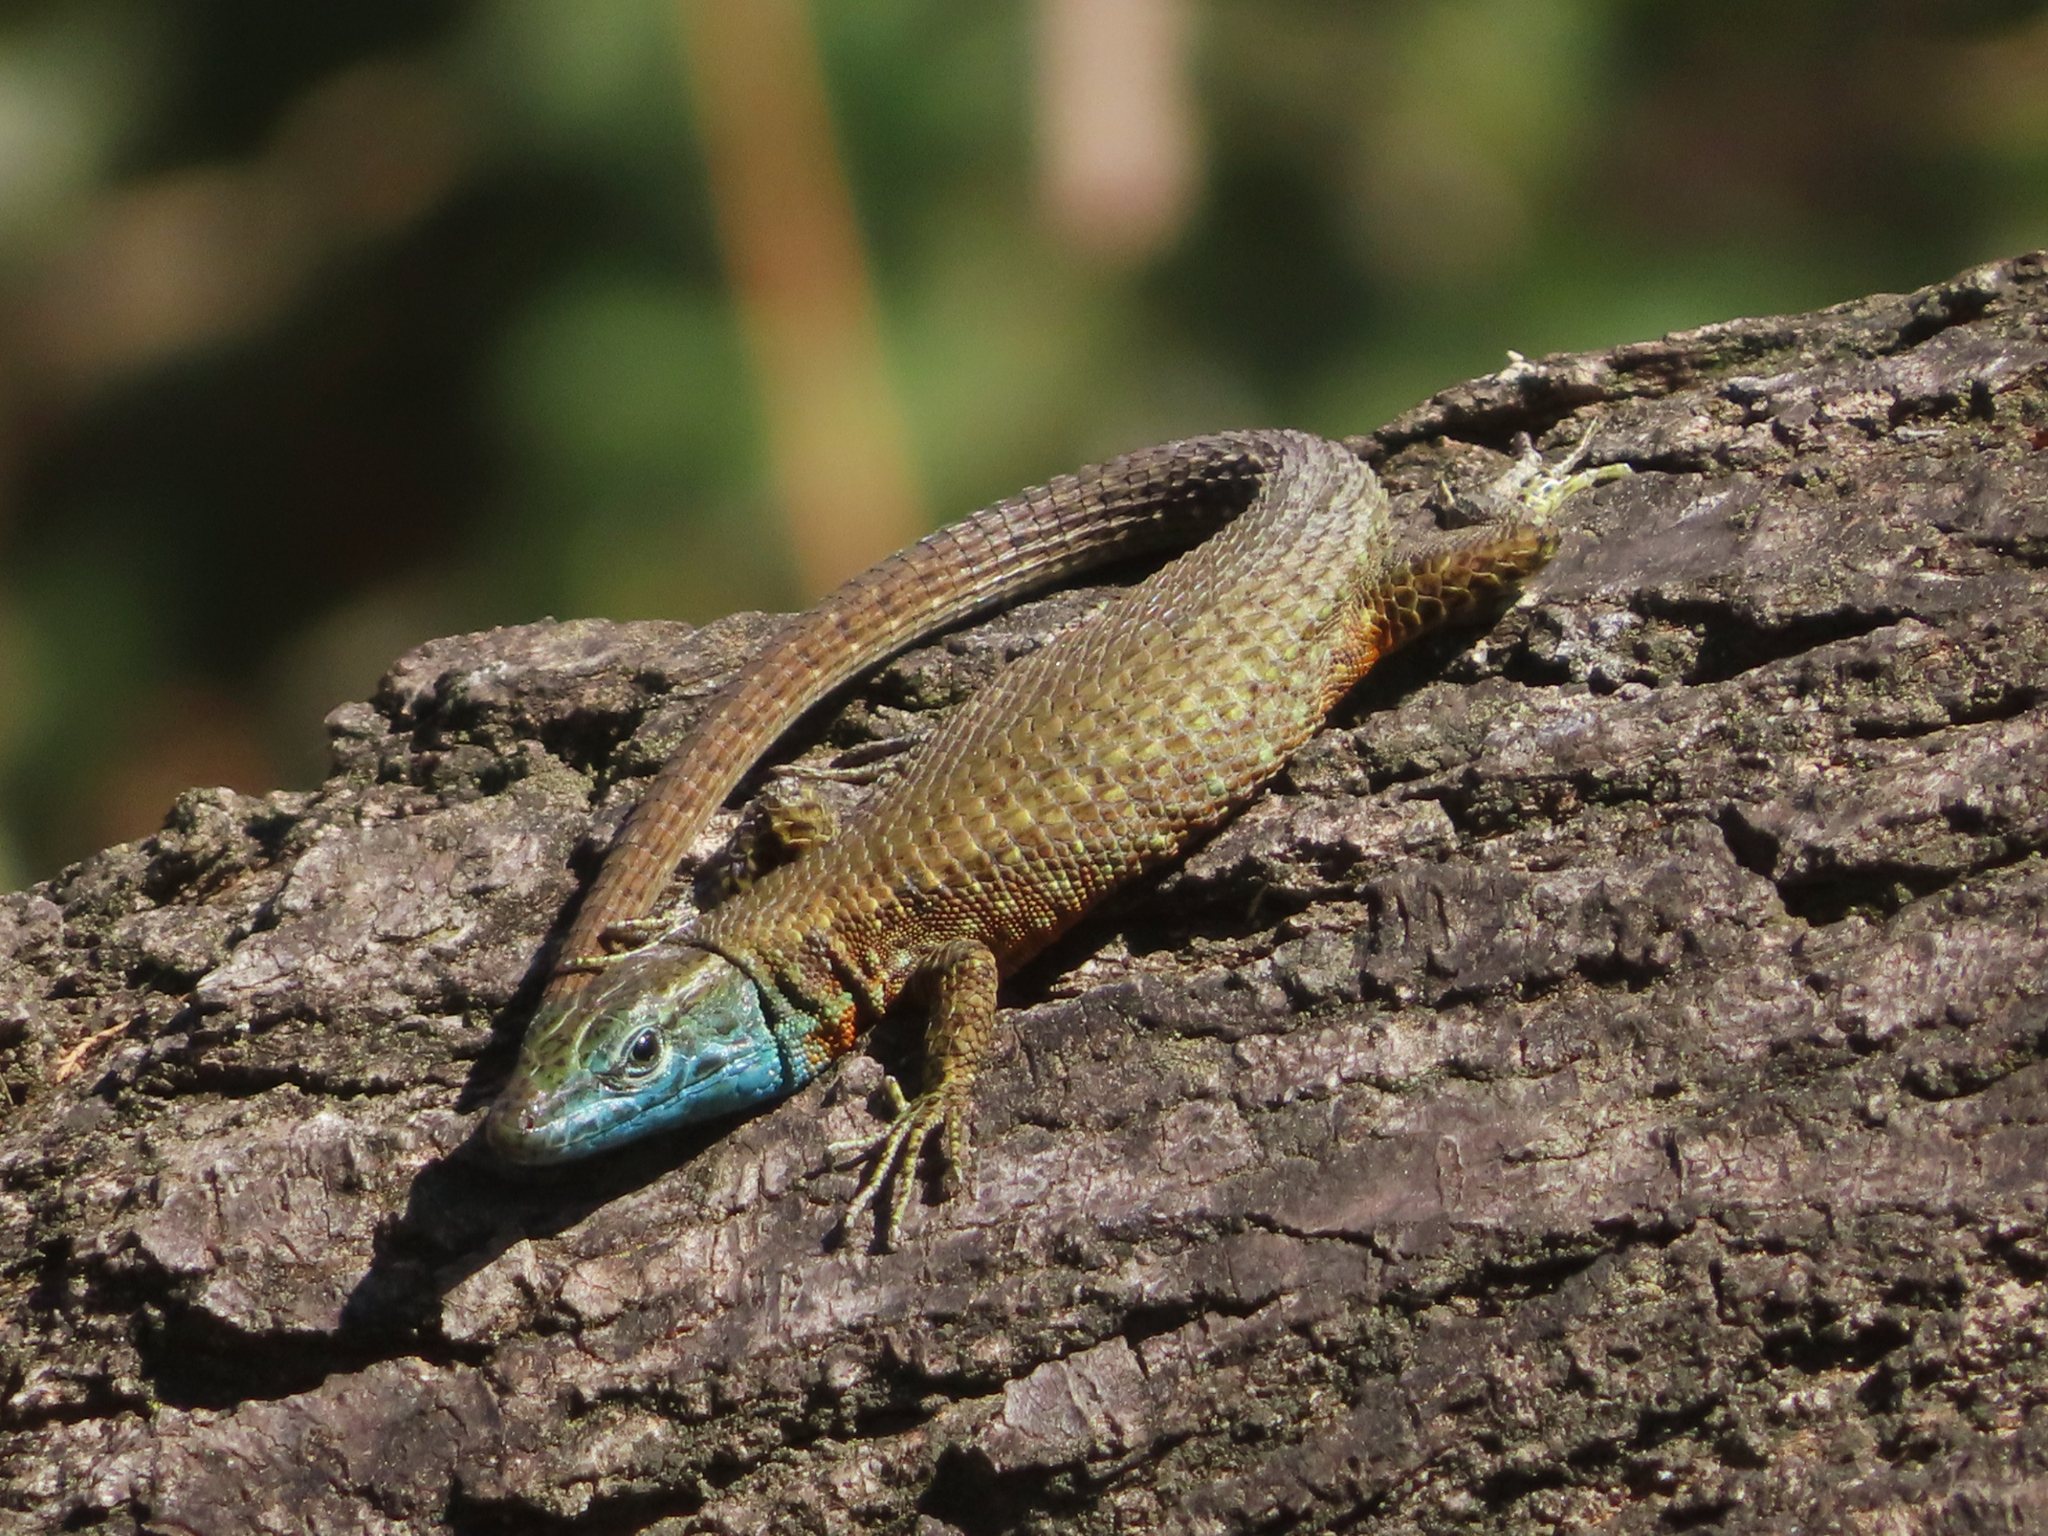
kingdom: Animalia
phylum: Chordata
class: Squamata
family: Lacertidae
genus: Algyroides
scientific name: Algyroides nigropunctatus
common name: Blue-throated keeled lizard
